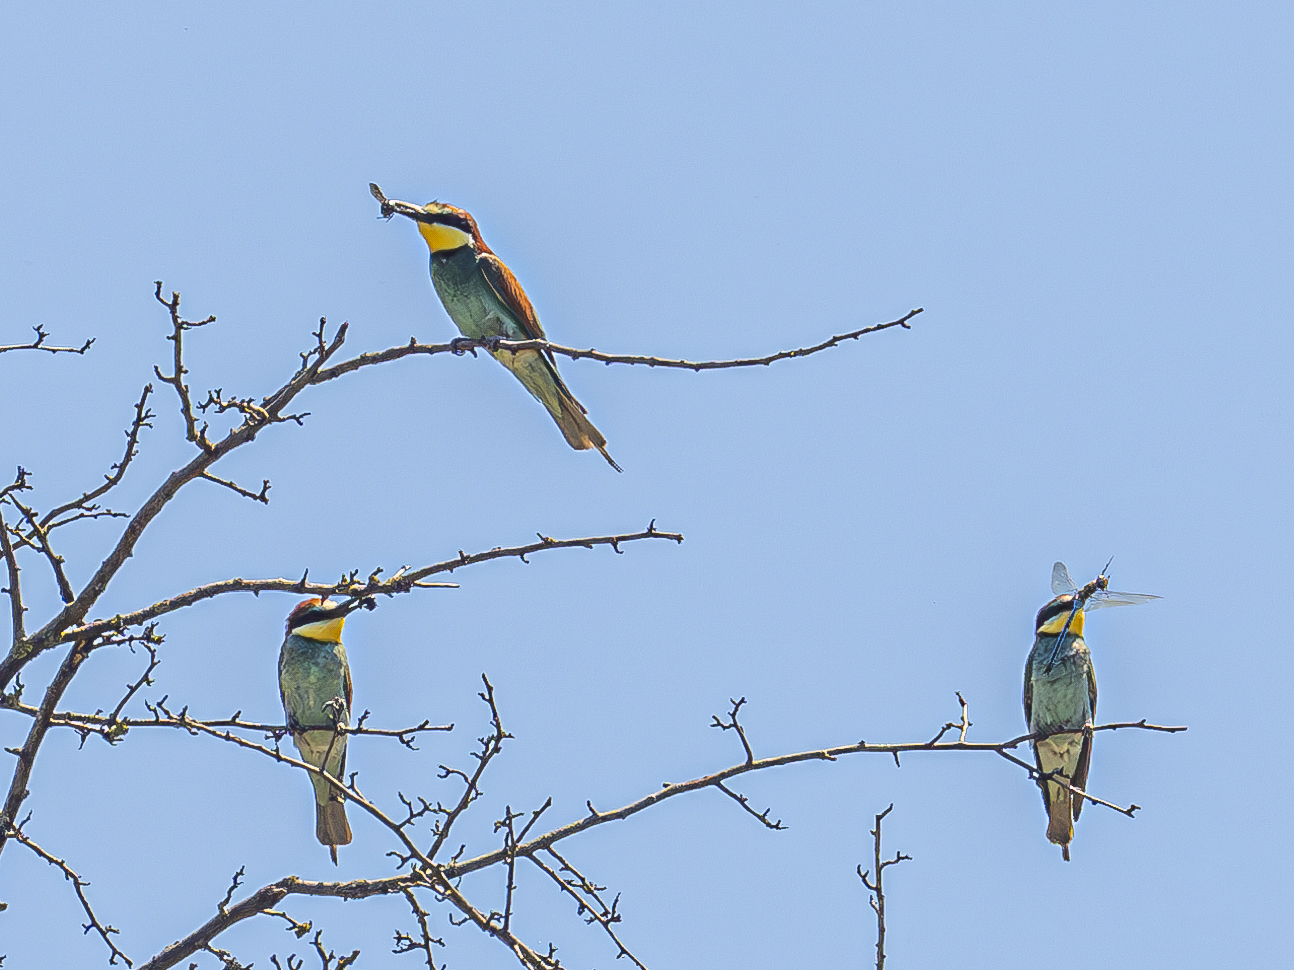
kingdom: Animalia
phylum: Chordata
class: Aves
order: Coraciiformes
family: Meropidae
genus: Merops
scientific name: Merops apiaster
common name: European bee-eater
